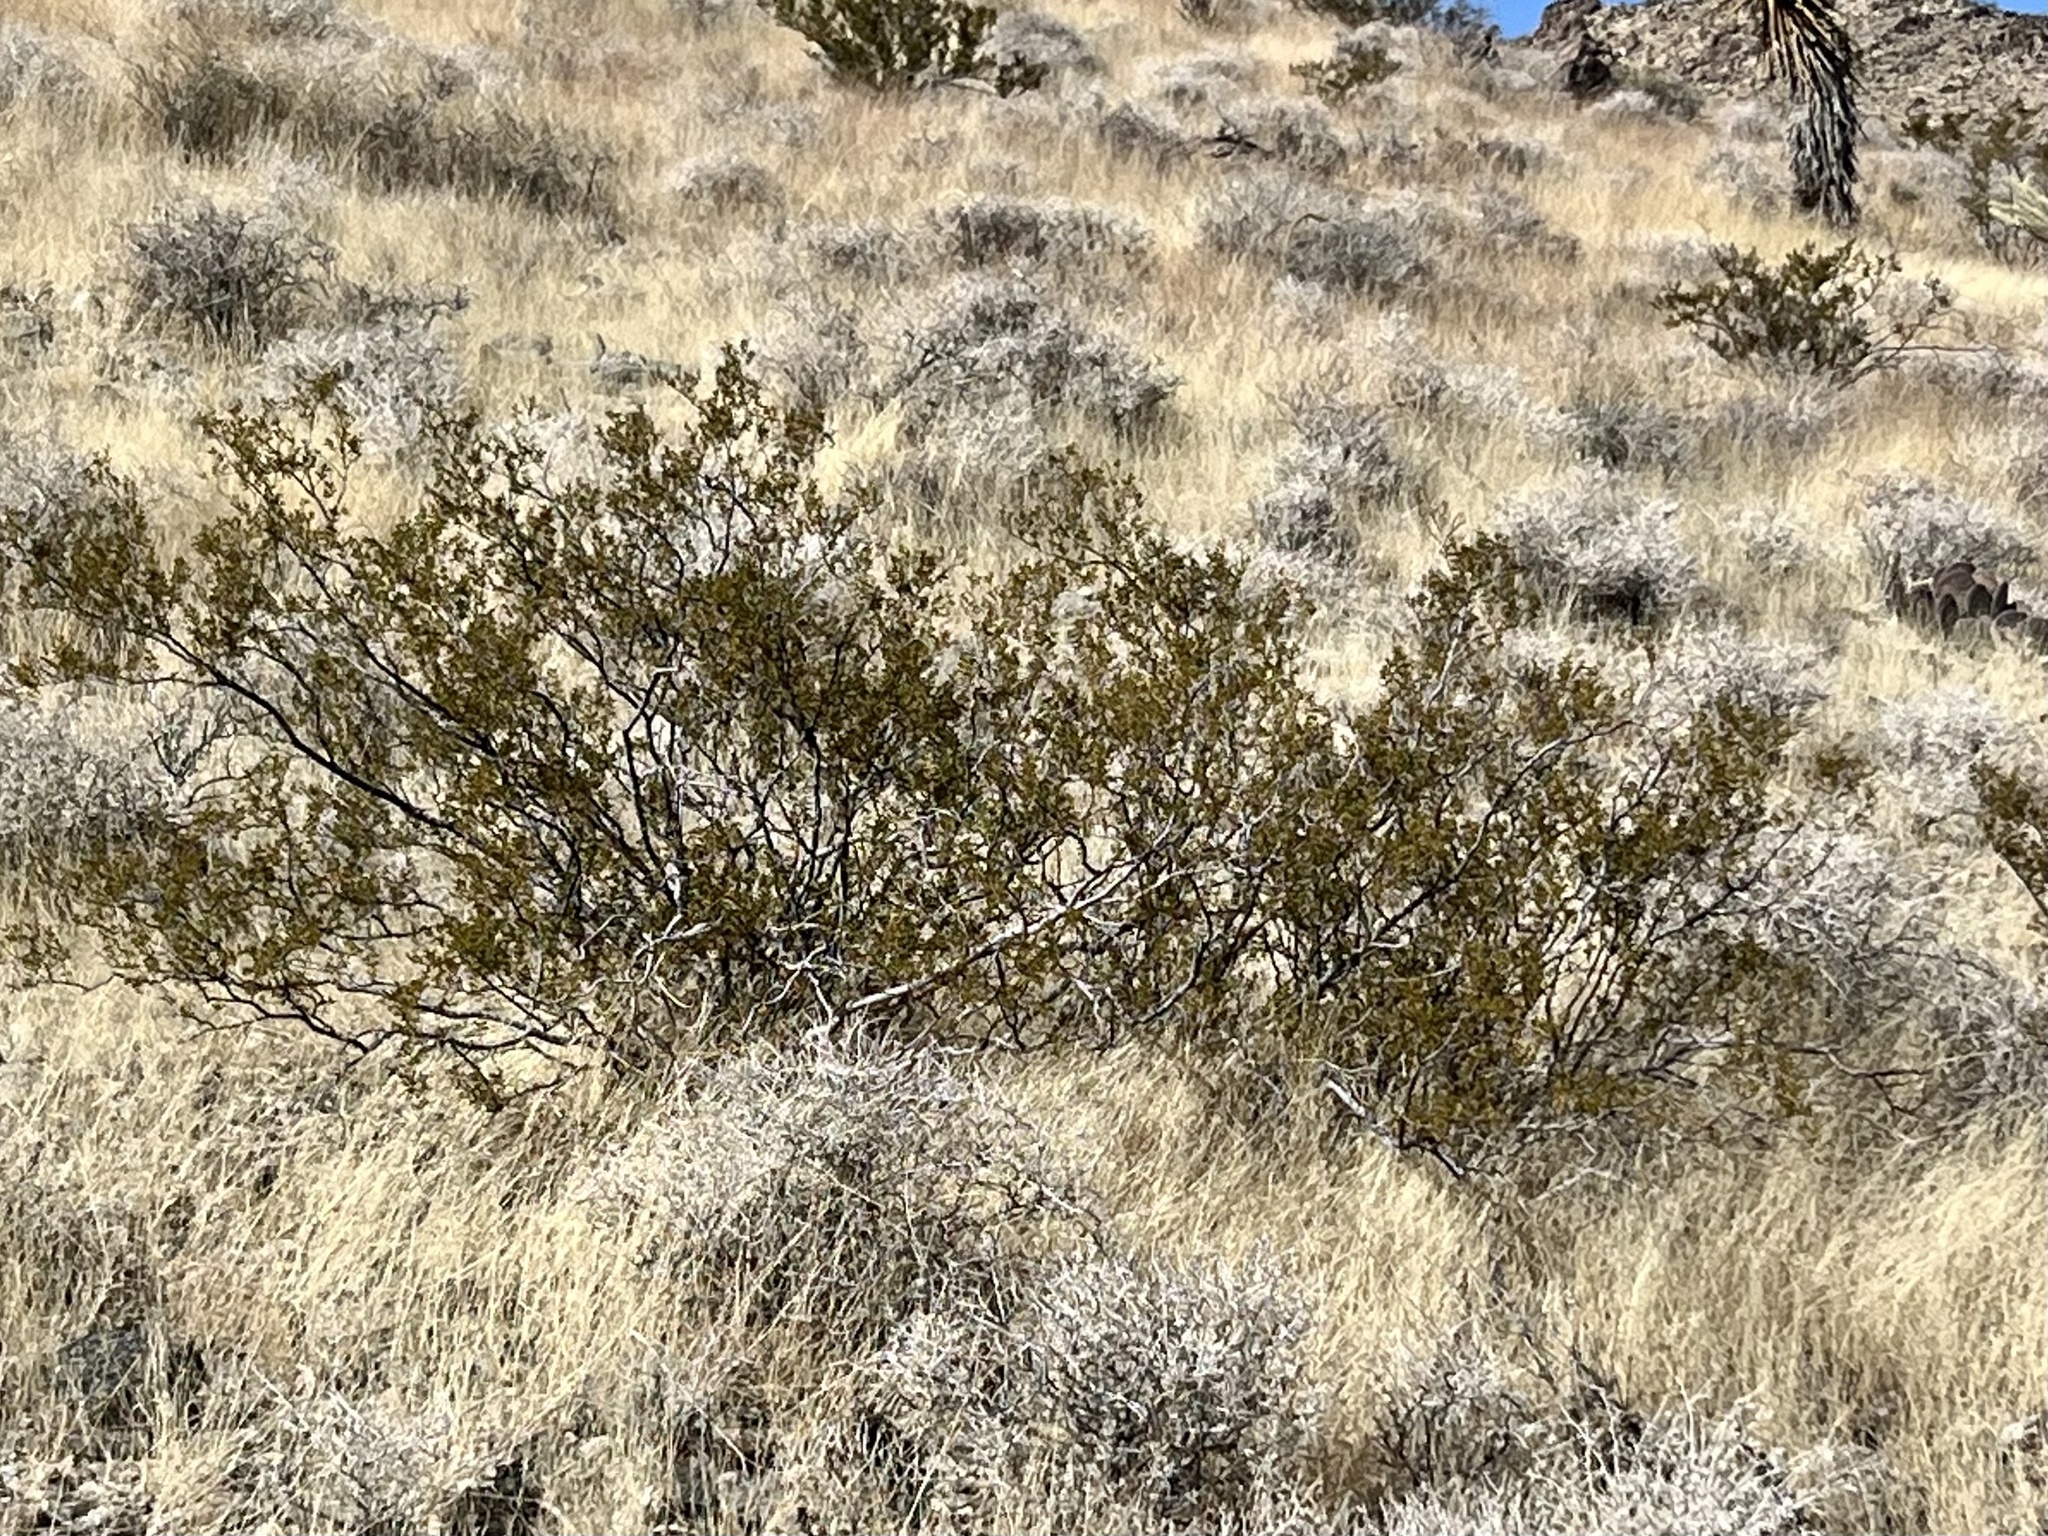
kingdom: Plantae
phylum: Tracheophyta
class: Magnoliopsida
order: Zygophyllales
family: Zygophyllaceae
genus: Larrea
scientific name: Larrea tridentata
